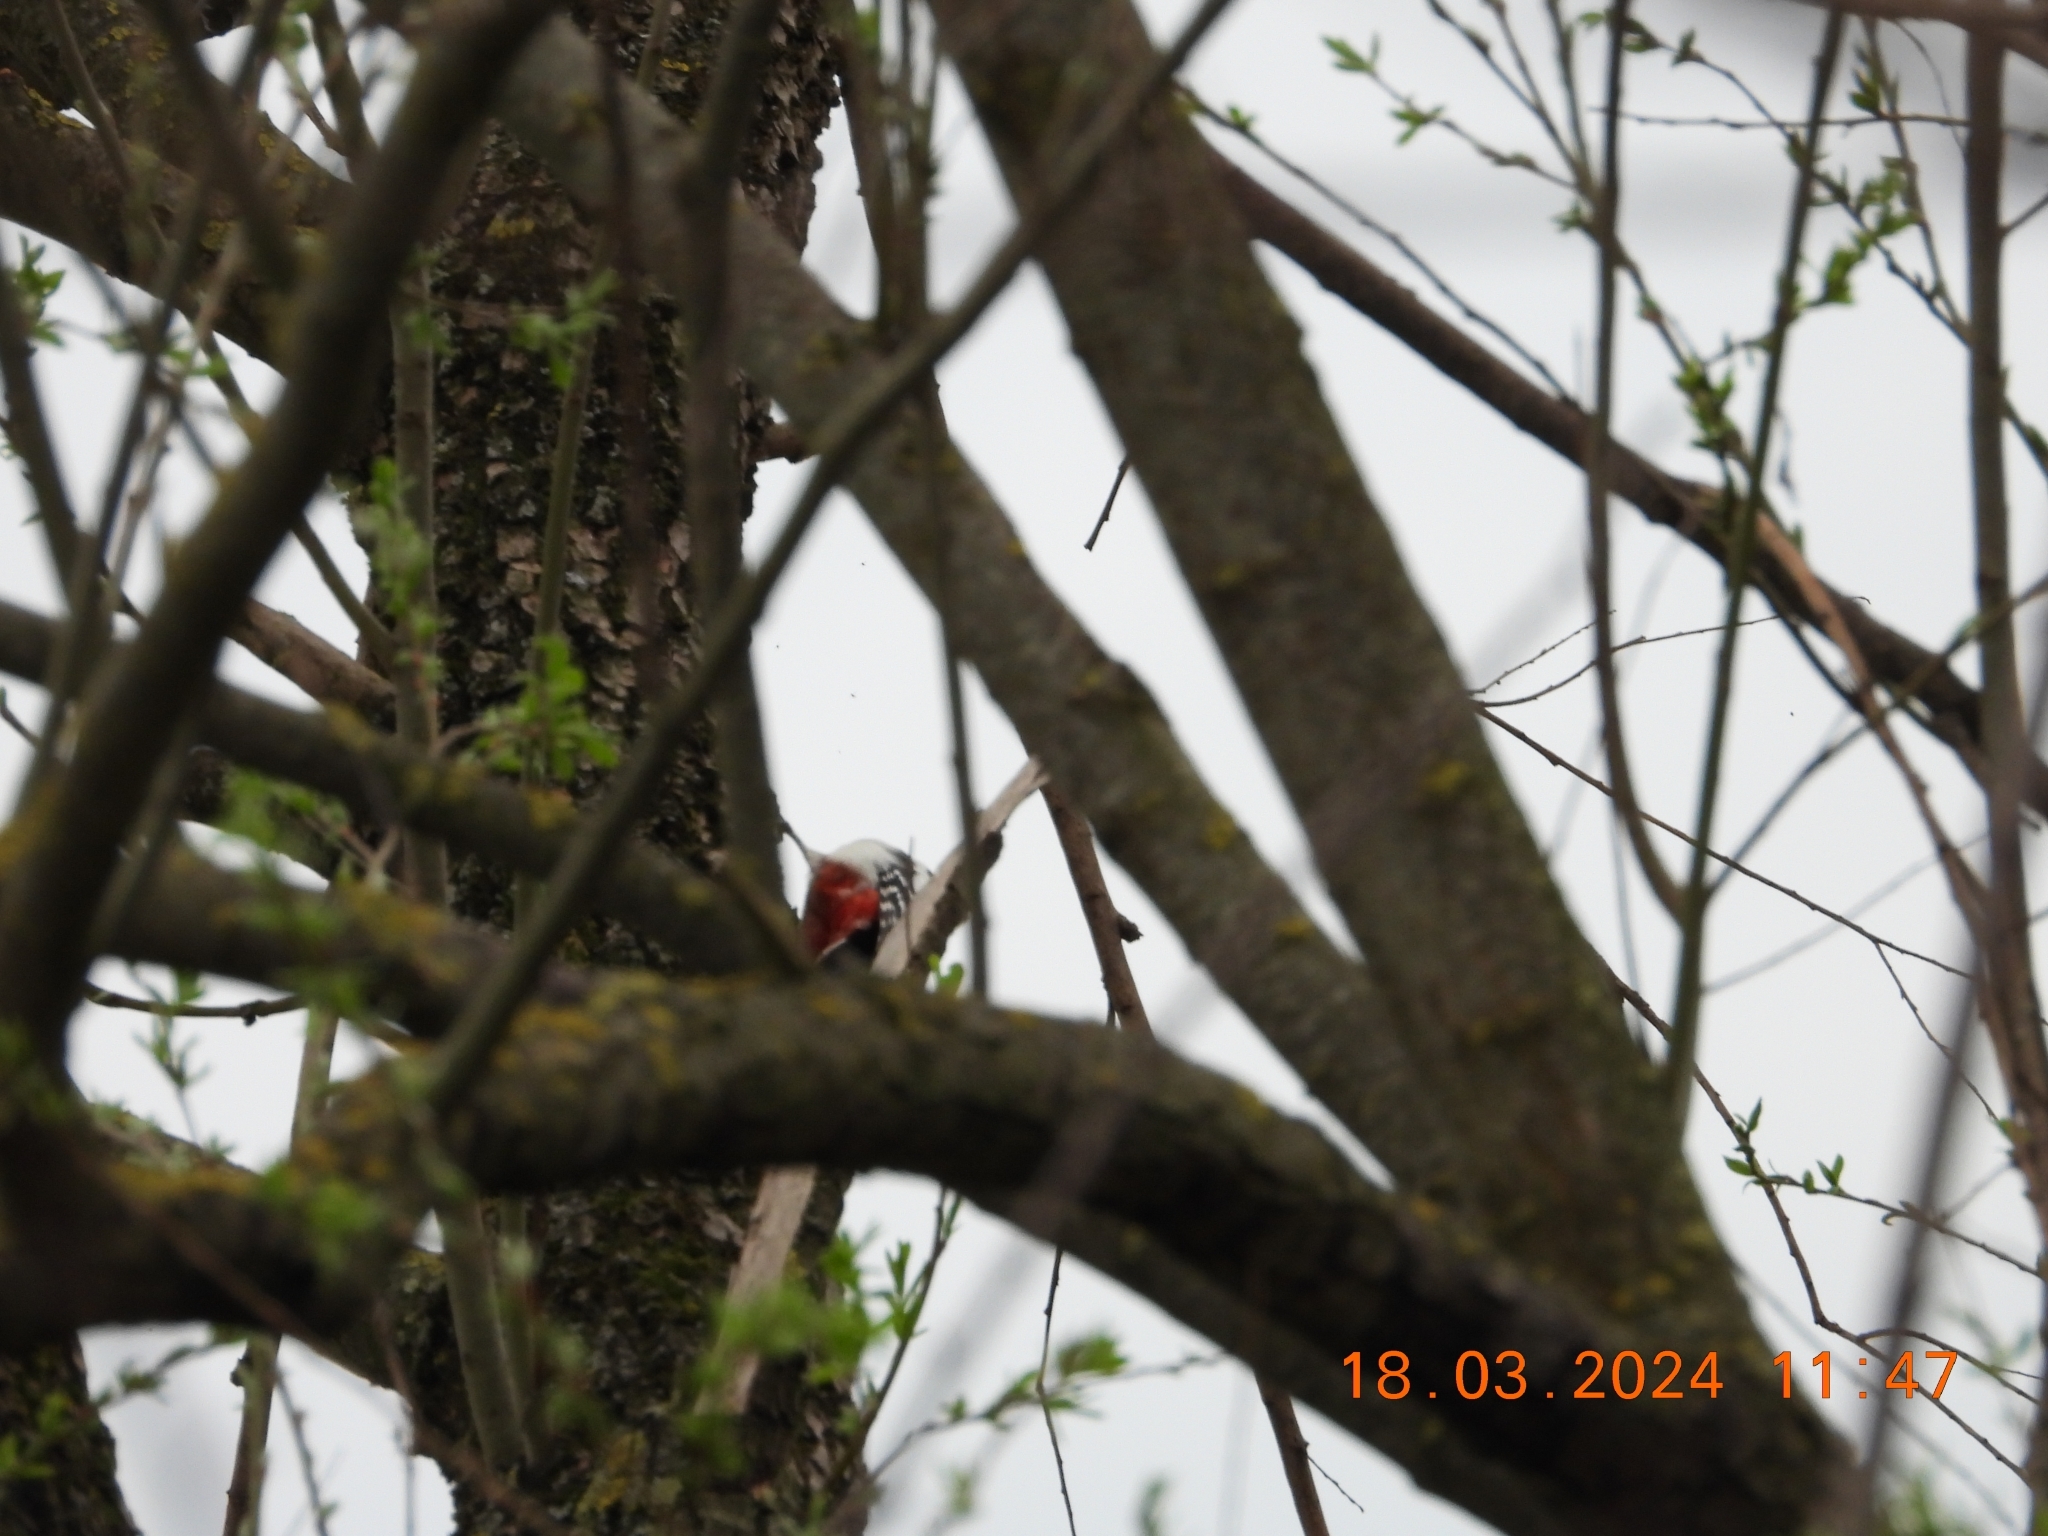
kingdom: Animalia
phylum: Chordata
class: Aves
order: Piciformes
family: Picidae
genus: Dendrocopos
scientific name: Dendrocopos major
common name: Great spotted woodpecker
